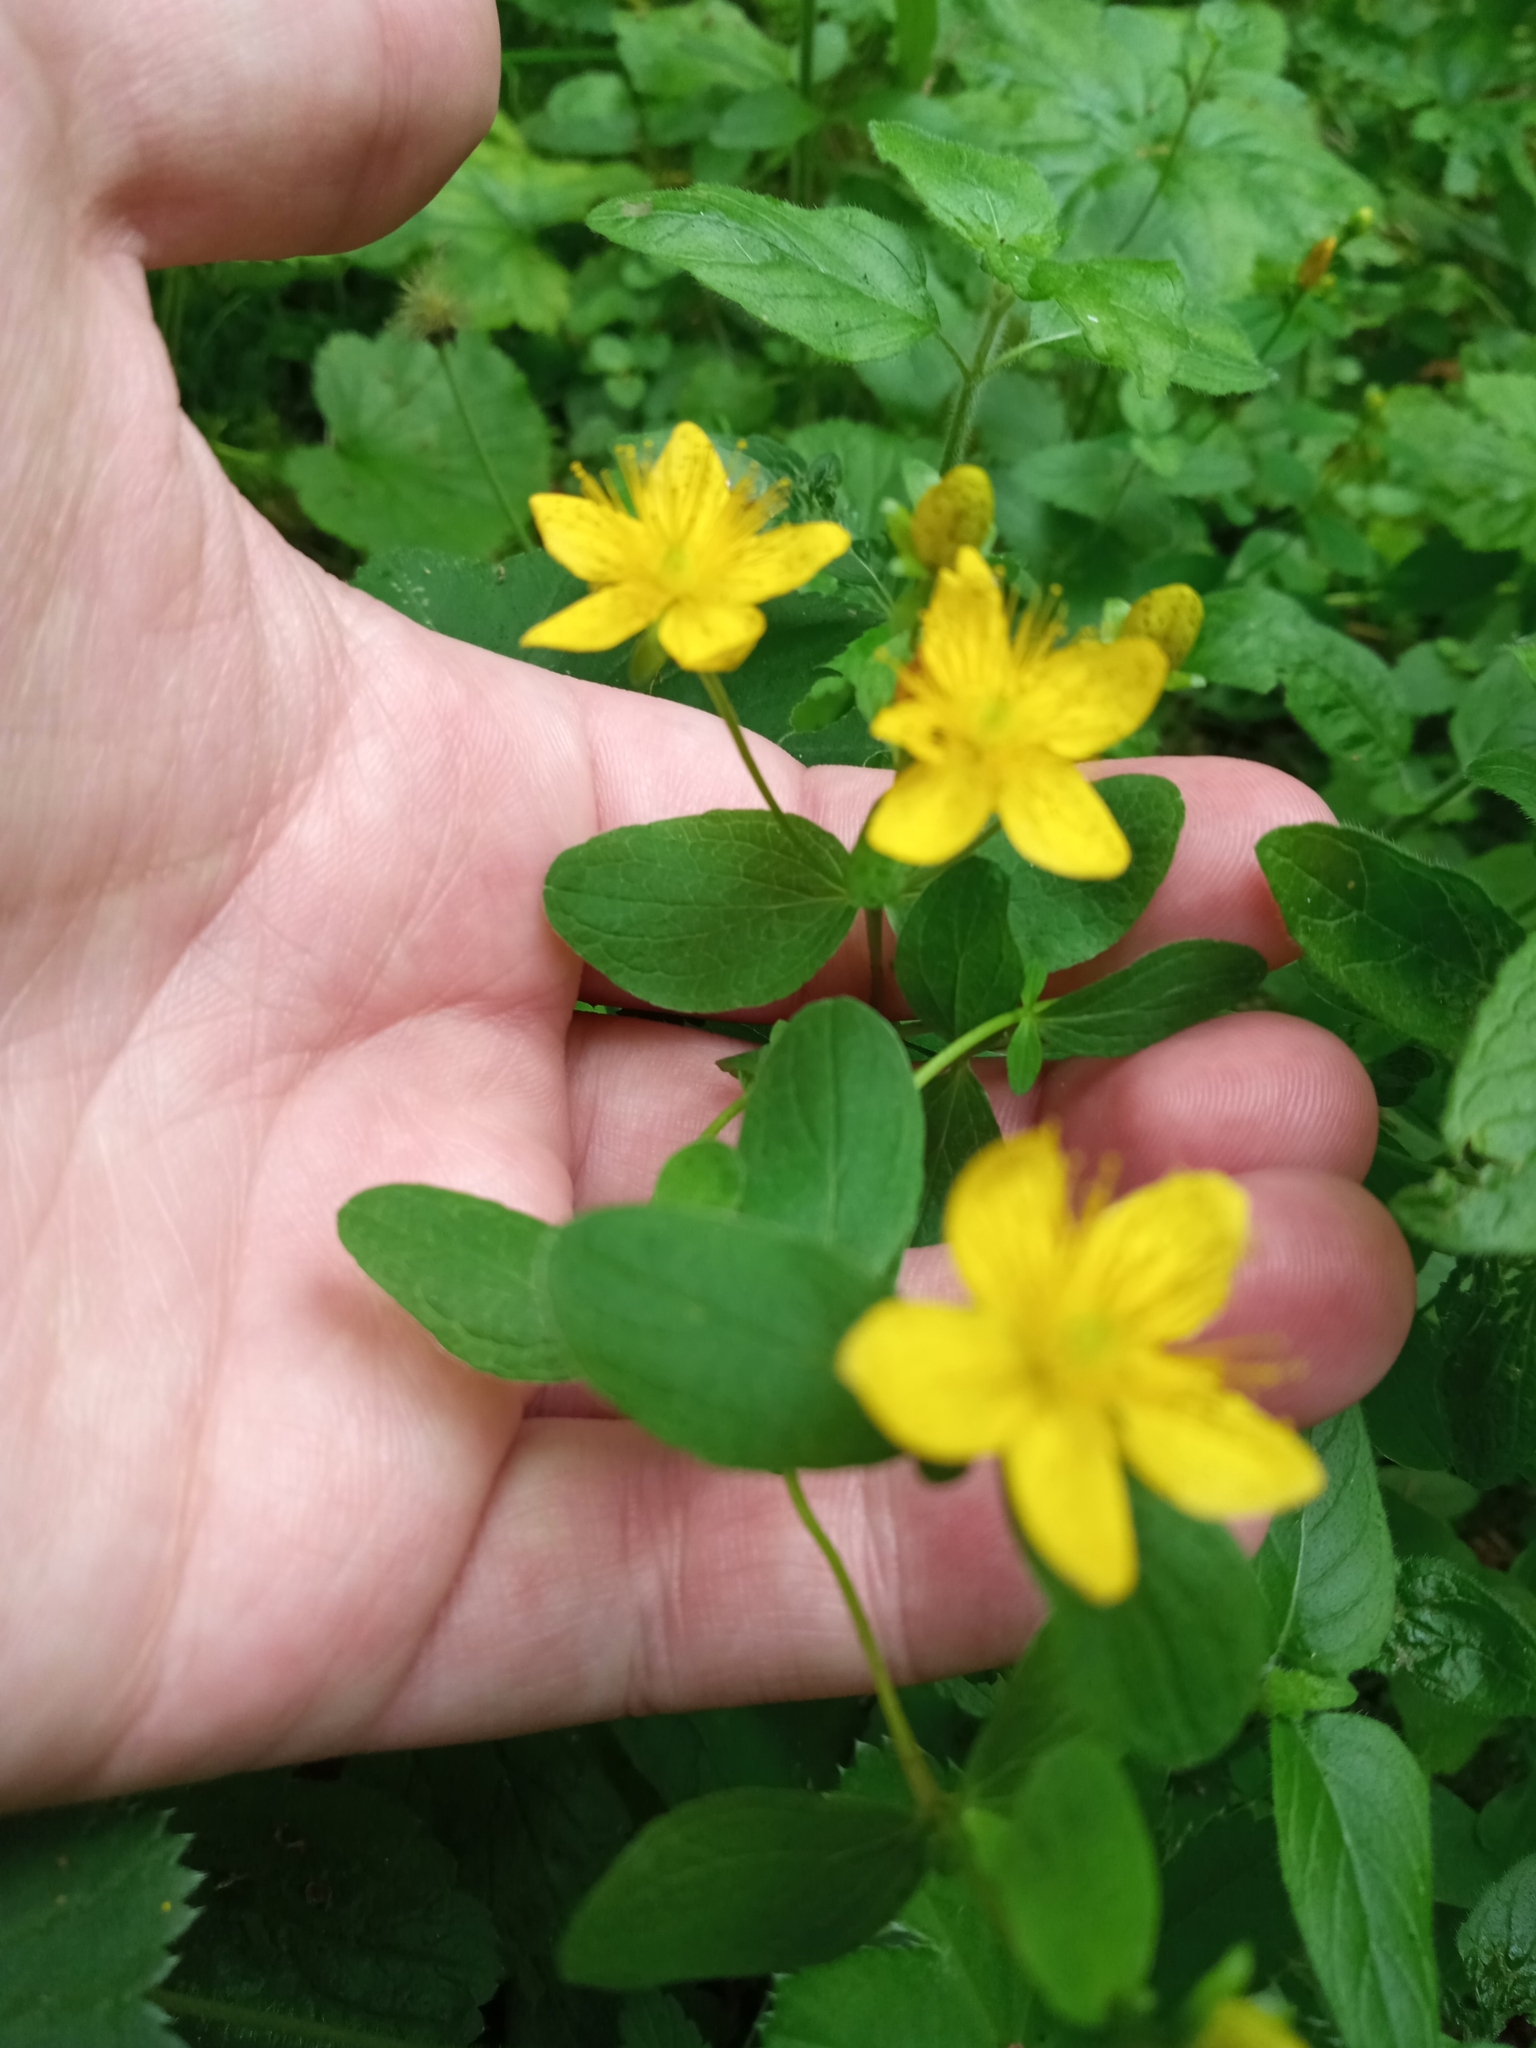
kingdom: Plantae
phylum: Tracheophyta
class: Magnoliopsida
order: Malpighiales
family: Hypericaceae
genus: Hypericum
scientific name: Hypericum maculatum
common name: Imperforate st. john's-wort
